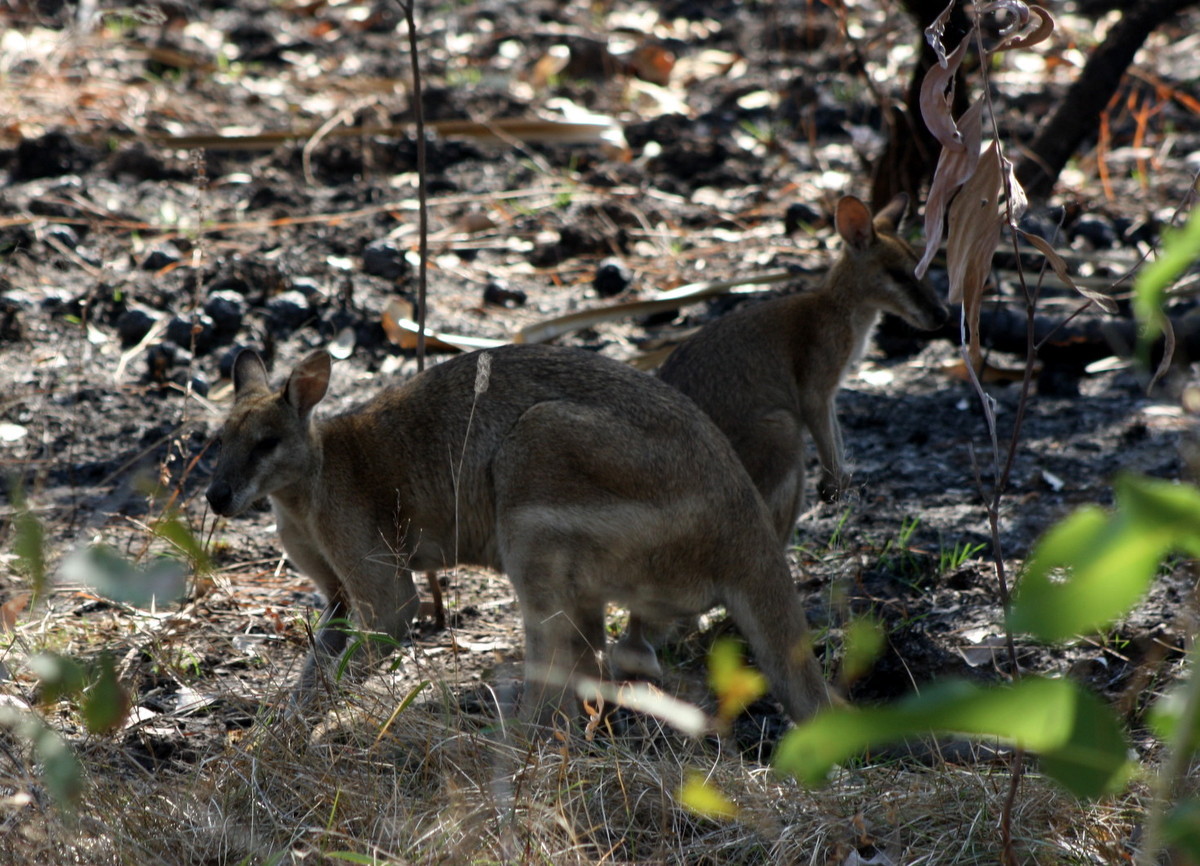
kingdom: Animalia
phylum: Chordata
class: Mammalia
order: Diprotodontia
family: Macropodidae
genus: Macropus
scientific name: Macropus agilis
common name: Agile wallaby
